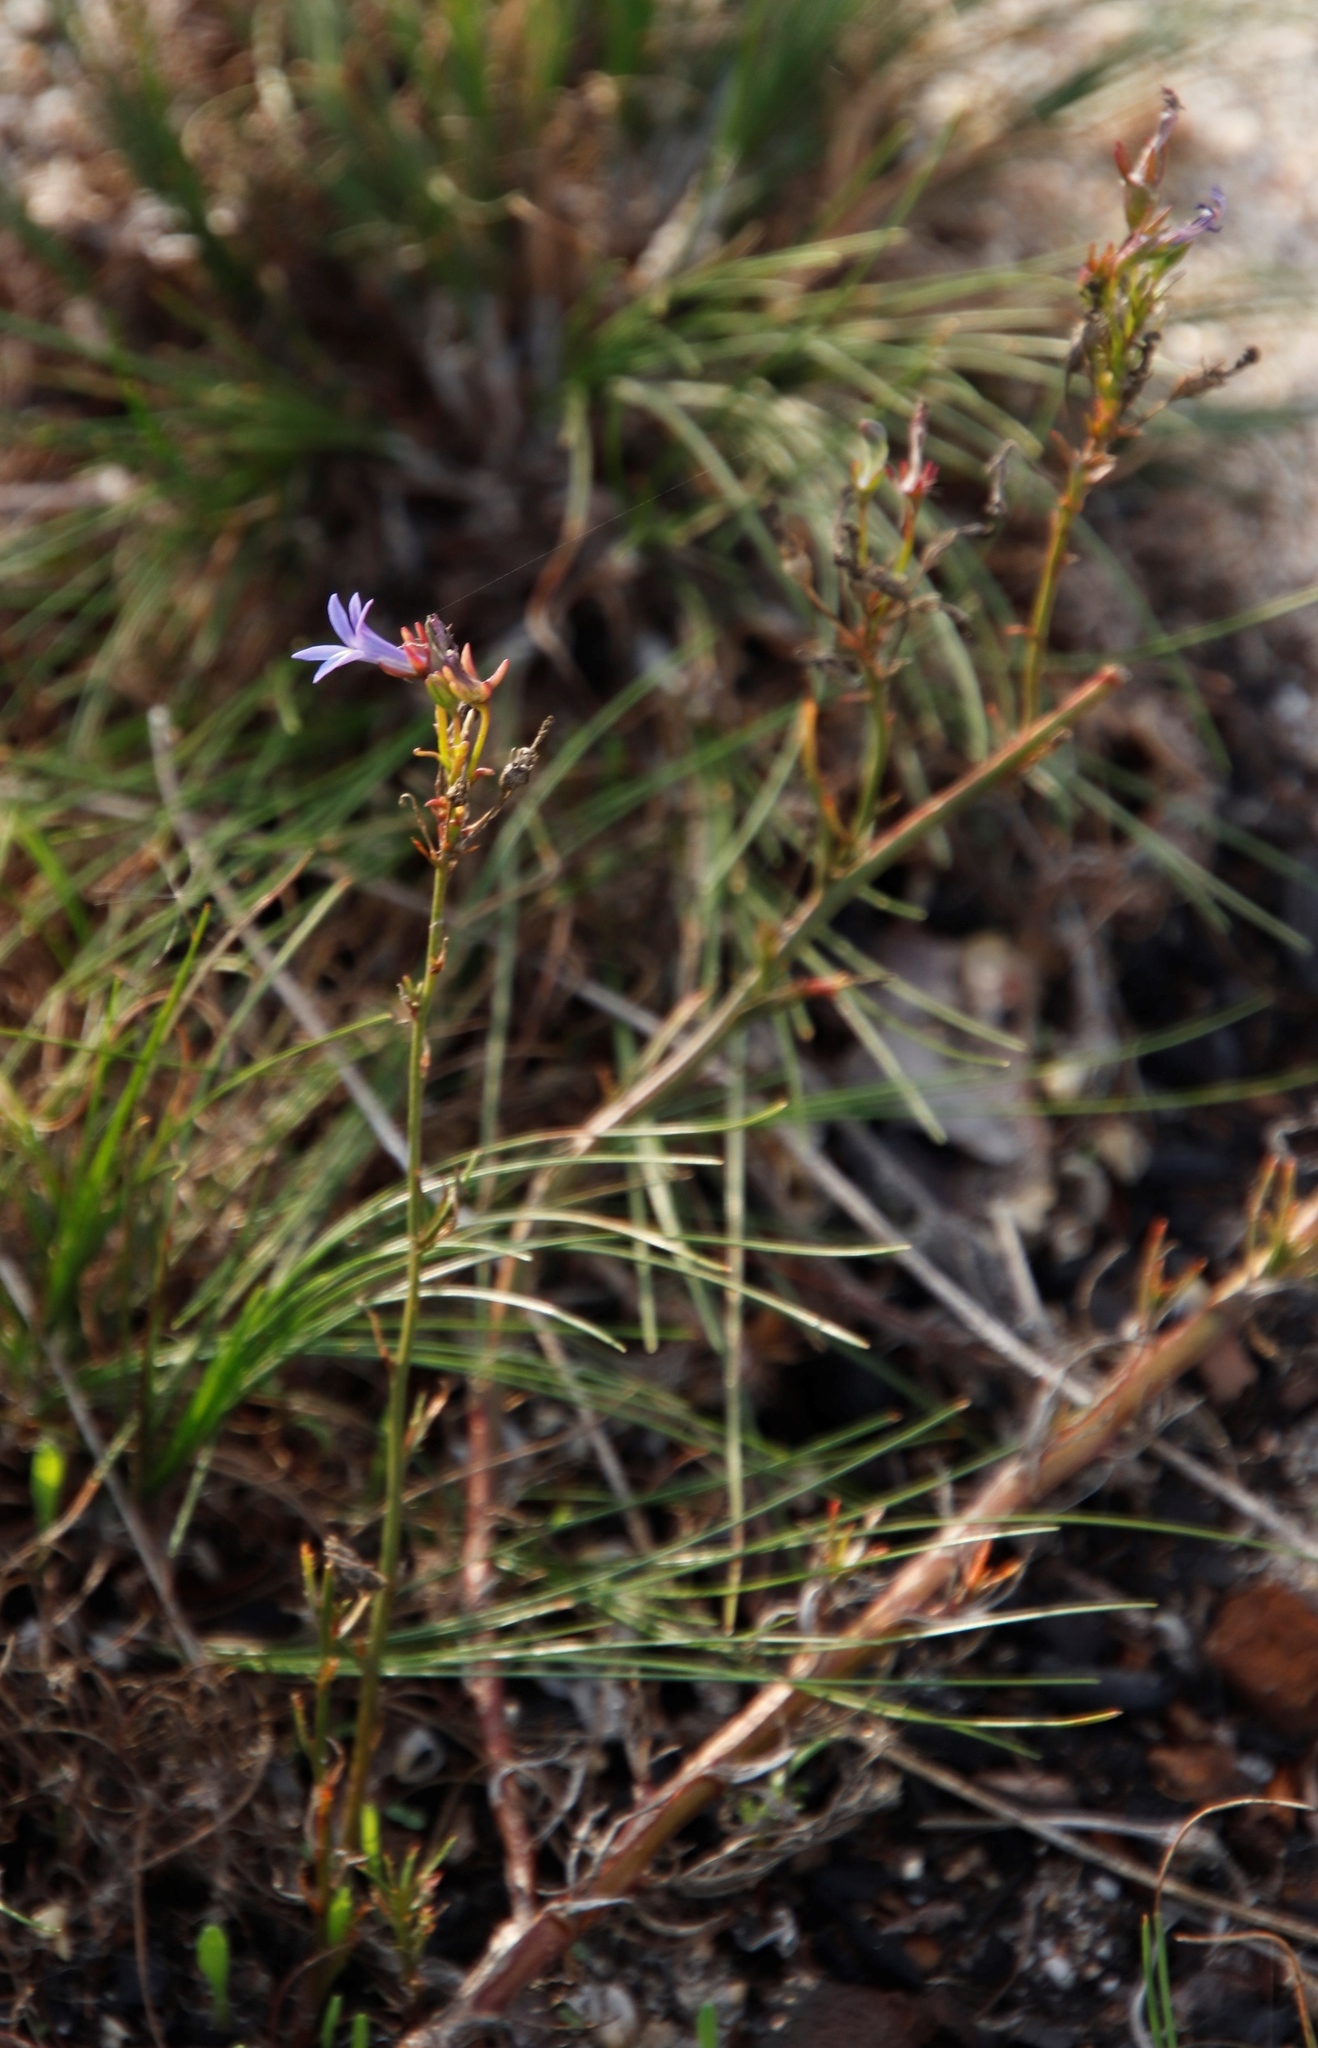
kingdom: Plantae
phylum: Tracheophyta
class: Magnoliopsida
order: Asterales
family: Campanulaceae
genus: Lobelia
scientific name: Lobelia comosa
